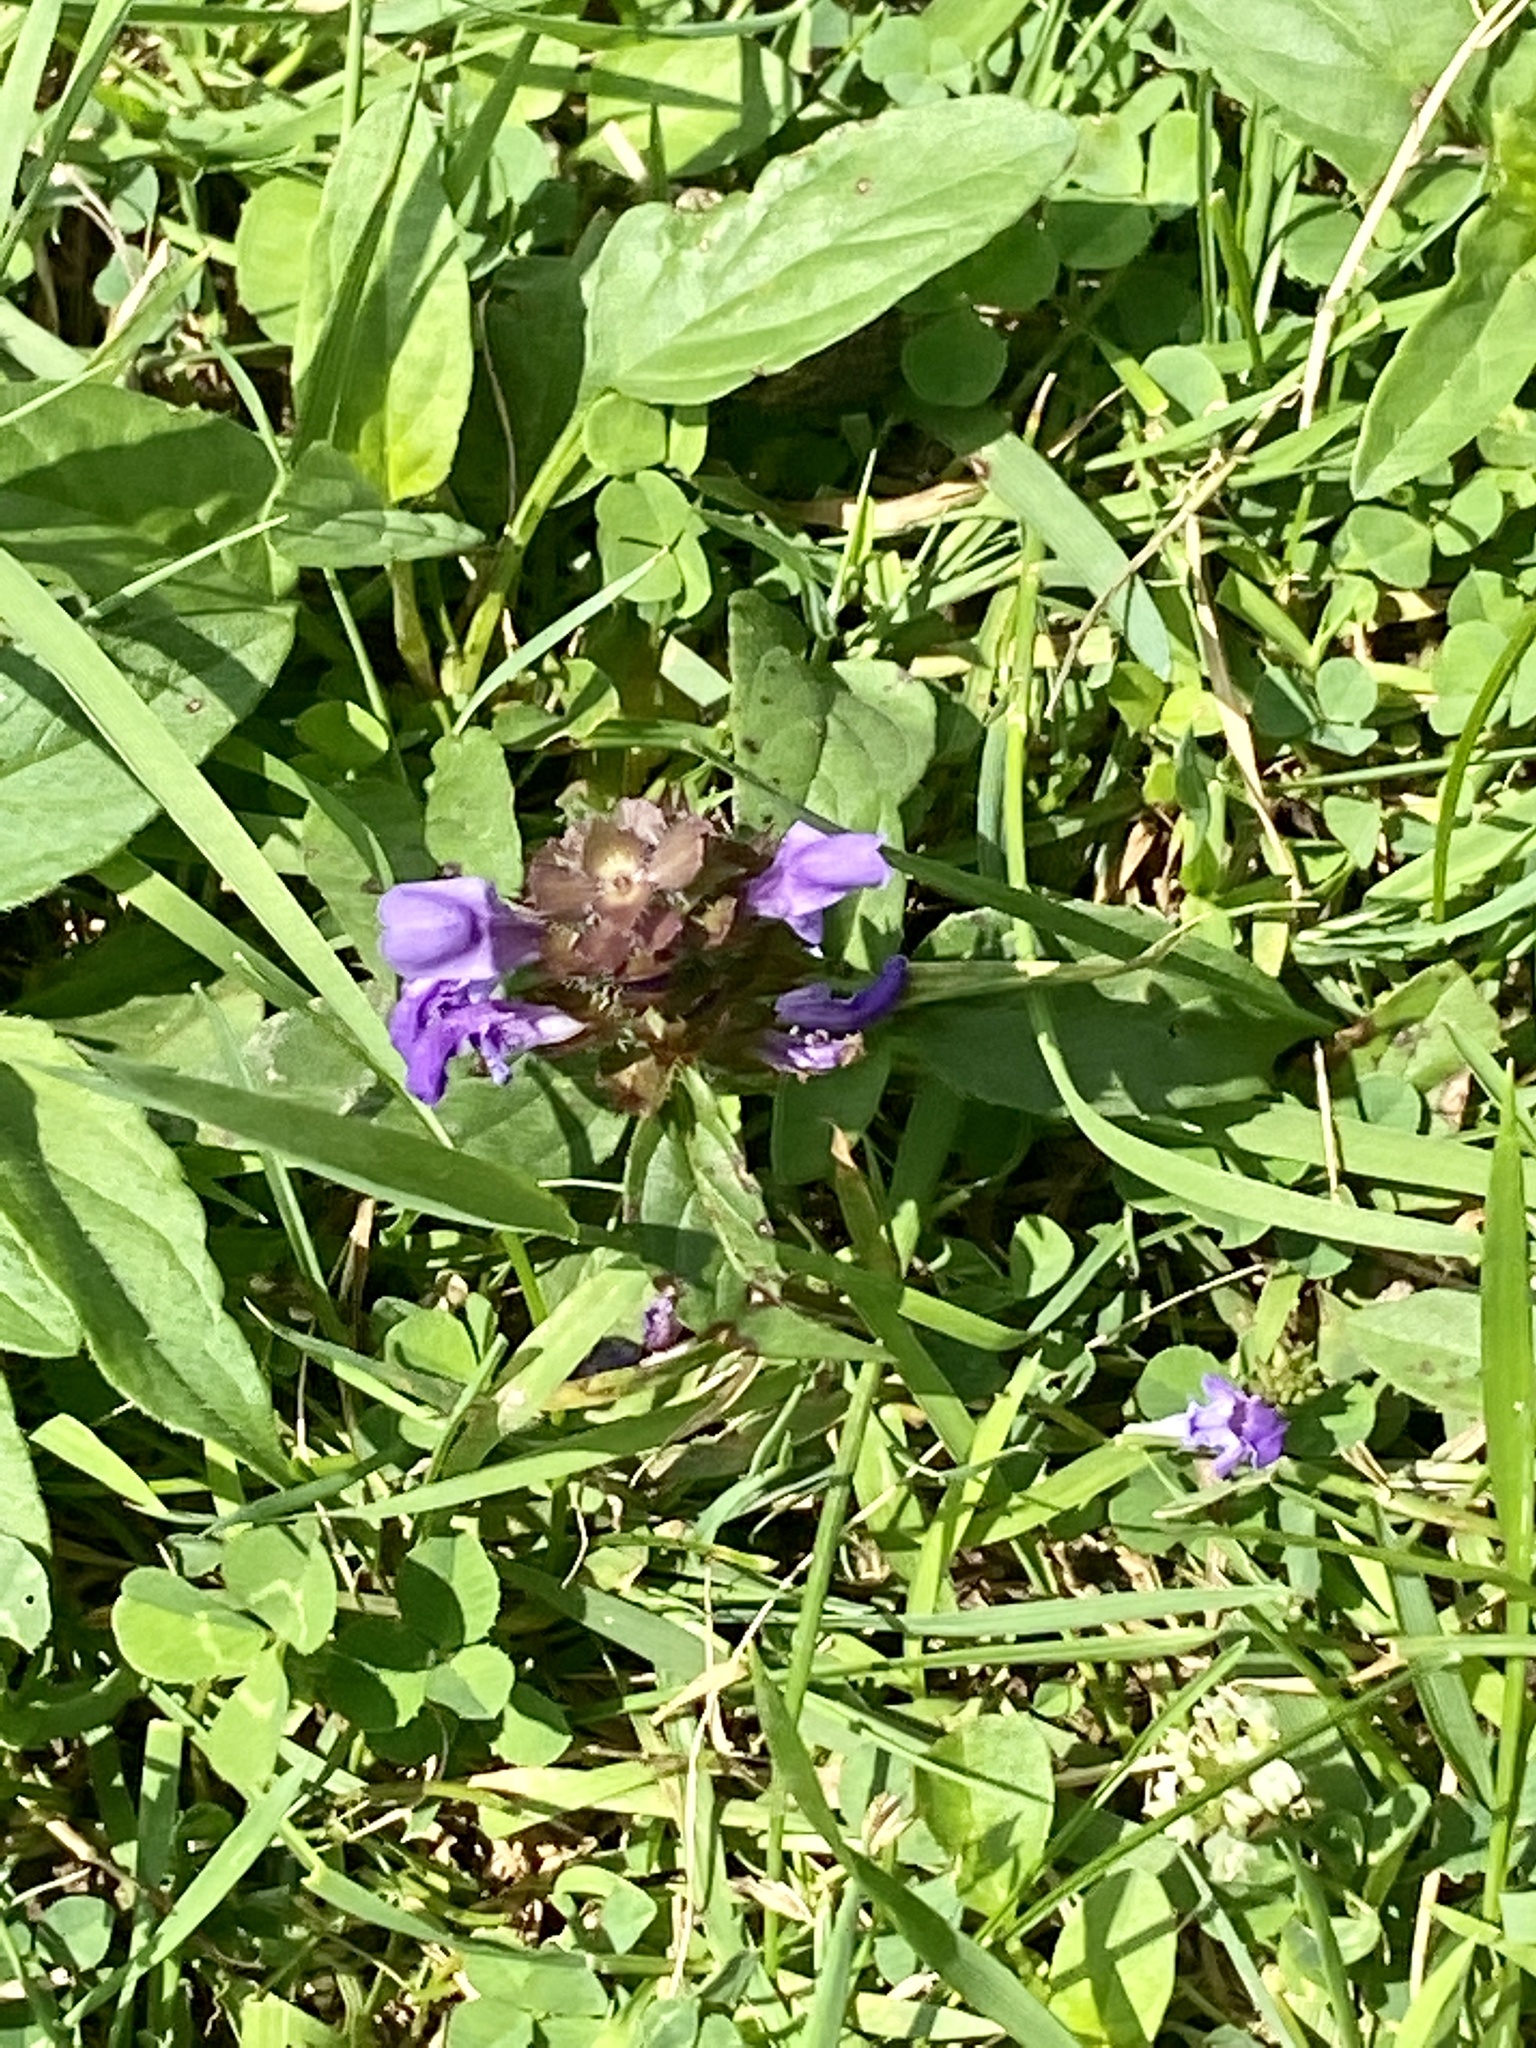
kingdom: Plantae
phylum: Tracheophyta
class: Magnoliopsida
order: Lamiales
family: Lamiaceae
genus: Prunella
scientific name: Prunella vulgaris
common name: Heal-all
